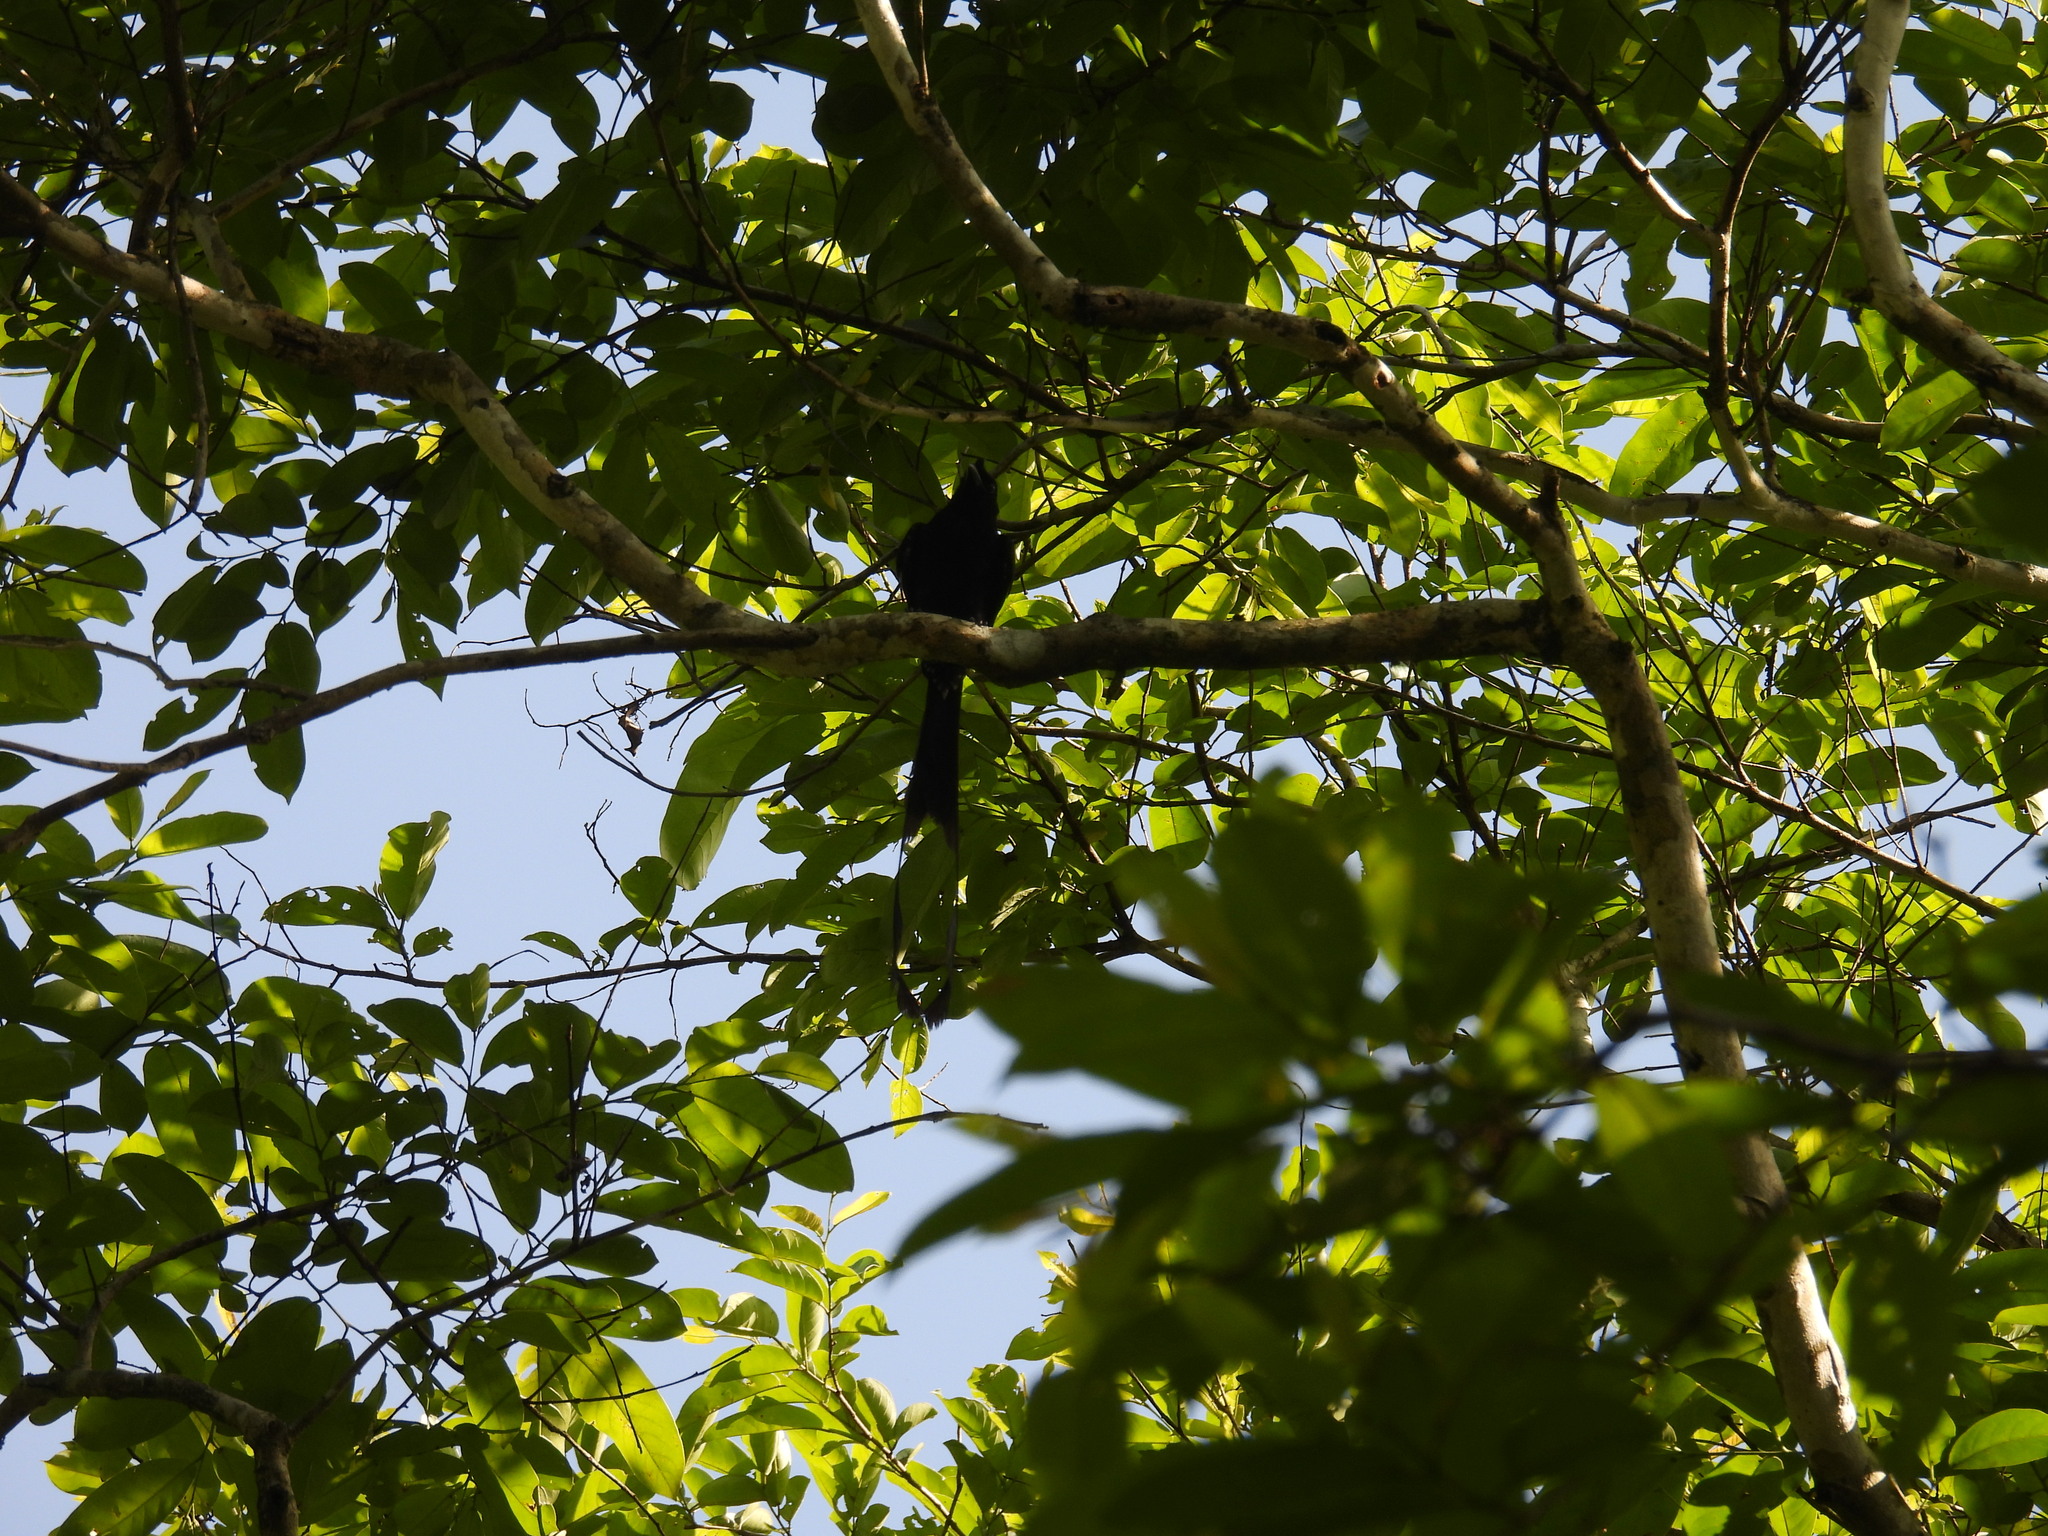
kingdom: Animalia
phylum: Chordata
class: Aves
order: Passeriformes
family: Dicruridae
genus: Dicrurus
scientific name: Dicrurus paradiseus
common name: Greater racket-tailed drongo
